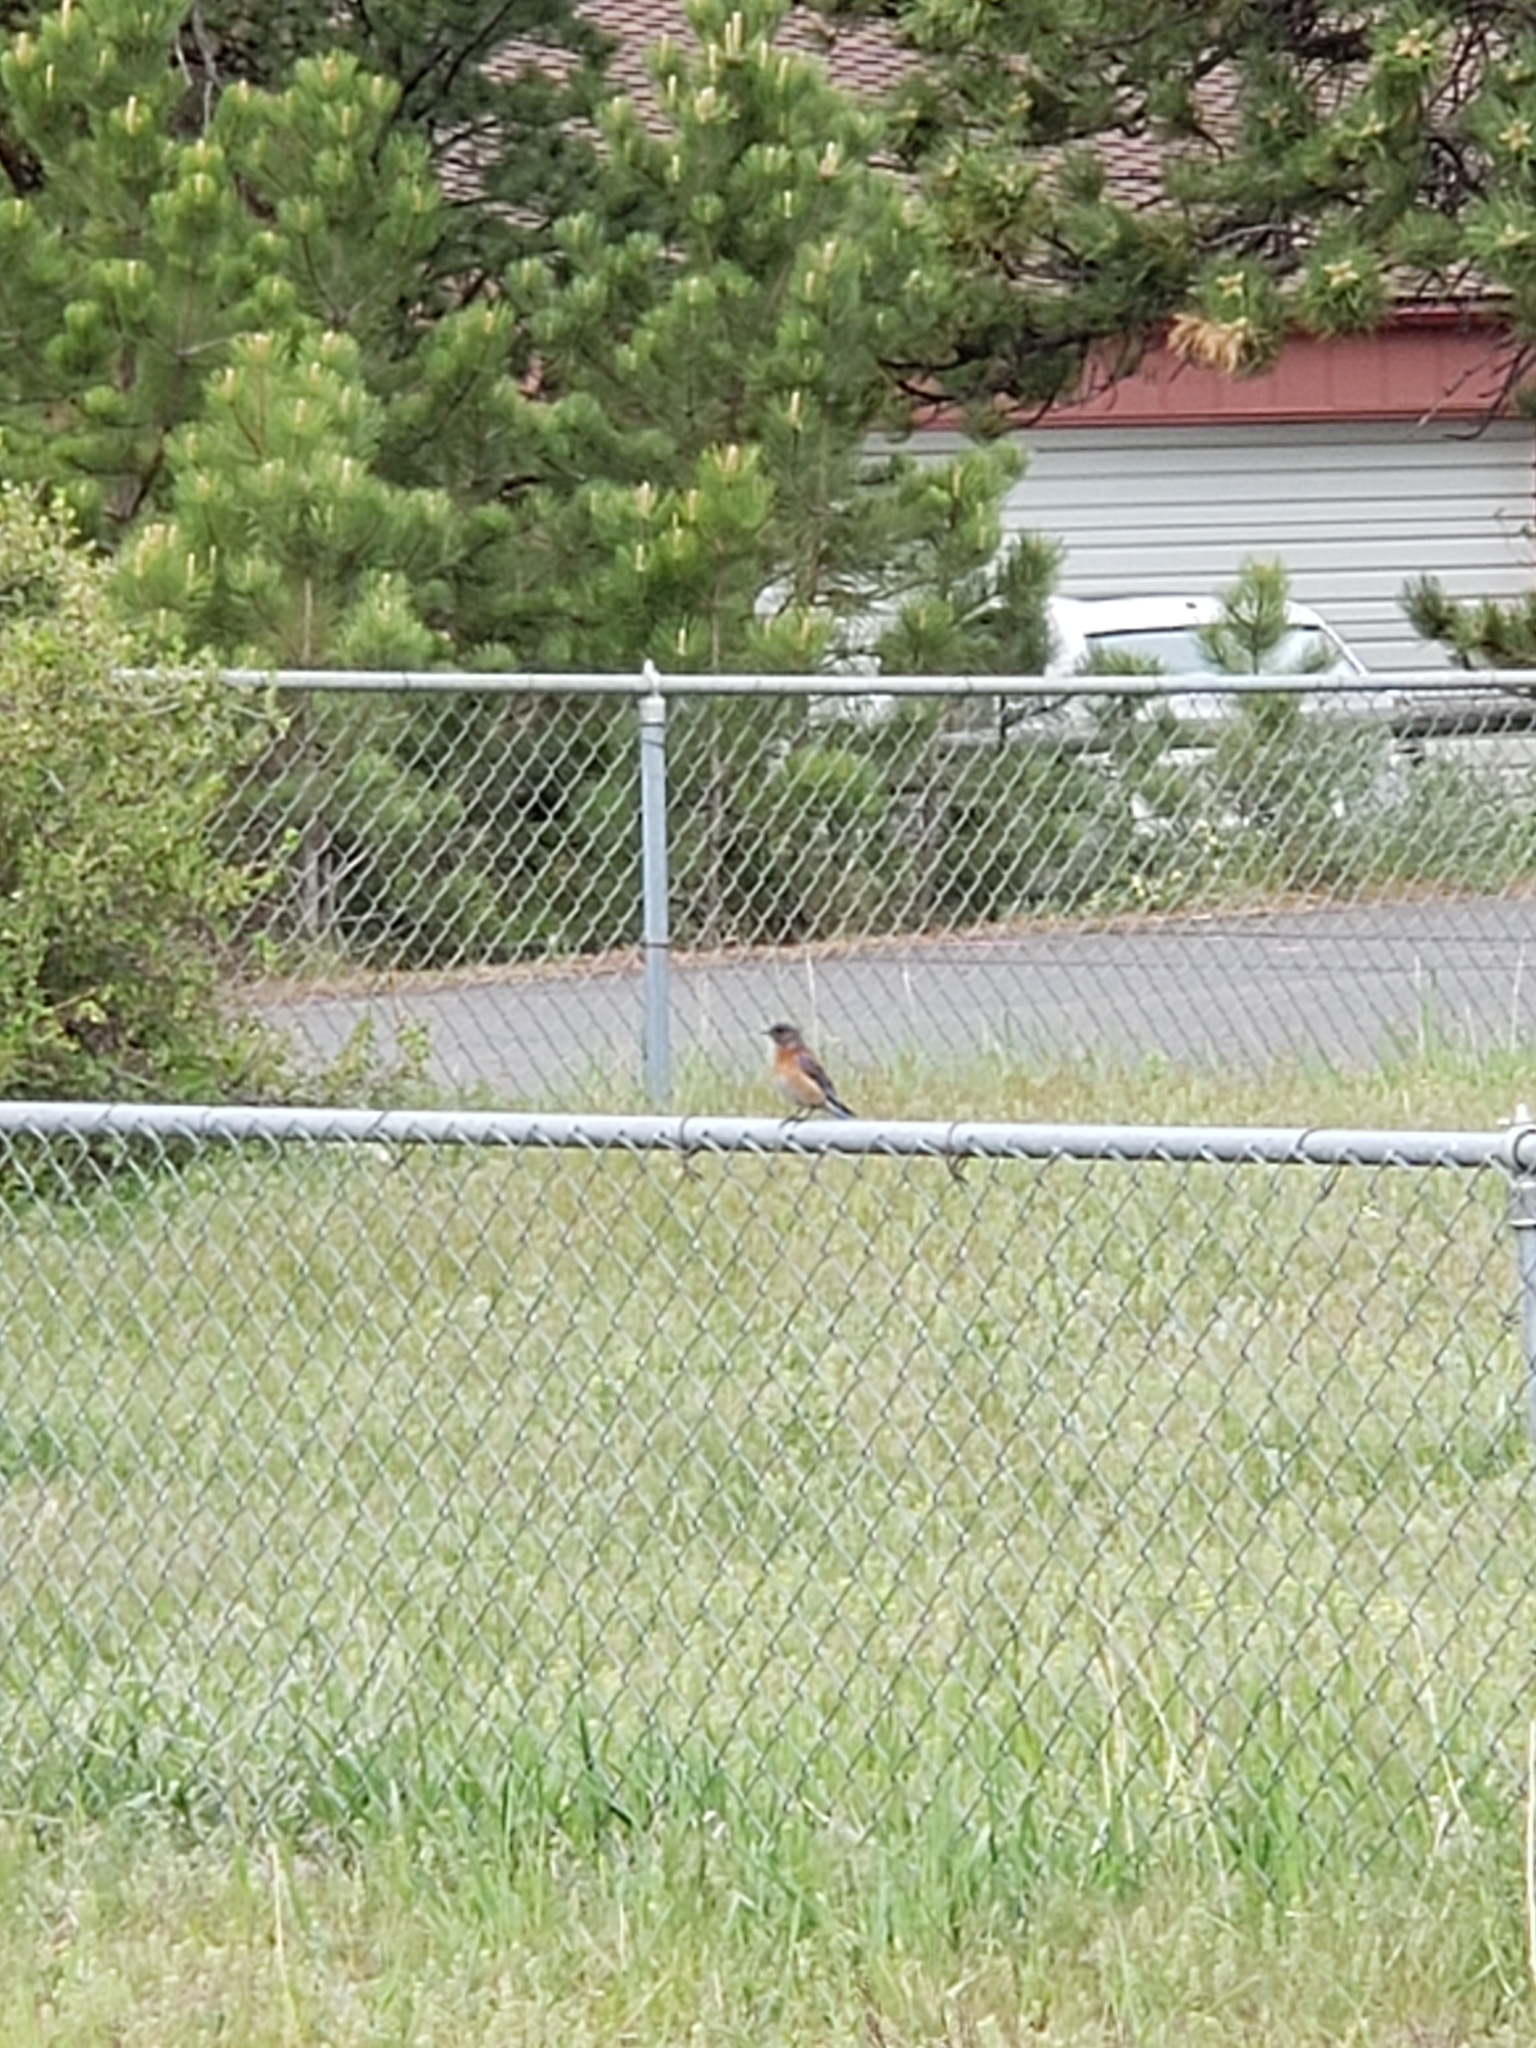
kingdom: Animalia
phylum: Chordata
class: Aves
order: Passeriformes
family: Turdidae
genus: Sialia
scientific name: Sialia mexicana
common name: Western bluebird
